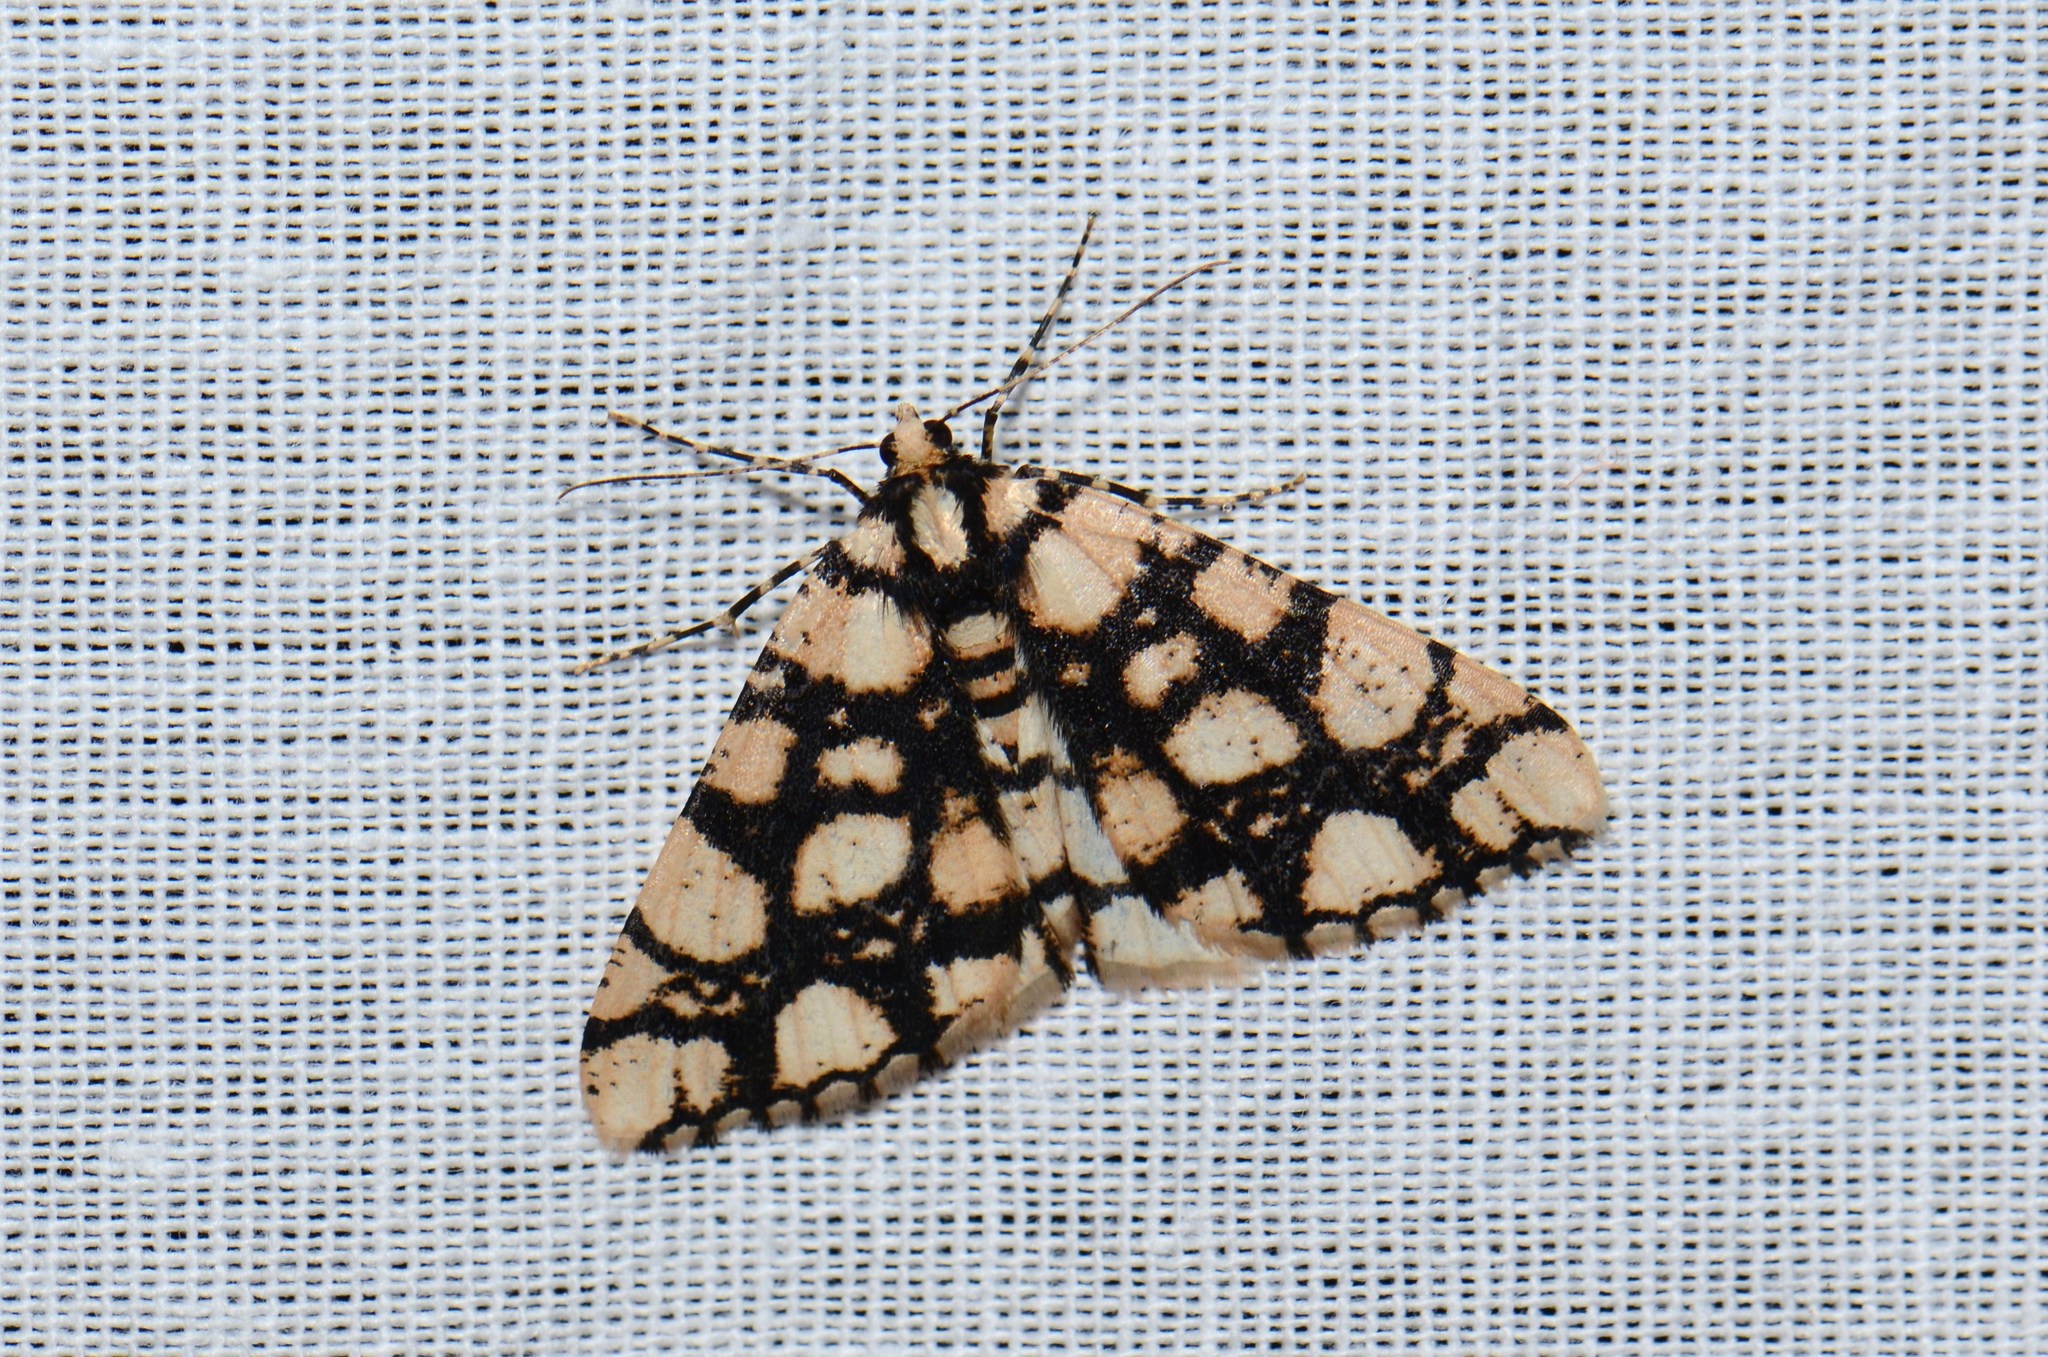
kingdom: Animalia
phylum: Arthropoda
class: Insecta
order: Lepidoptera
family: Geometridae
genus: Alcis
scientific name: Alcis maculata
